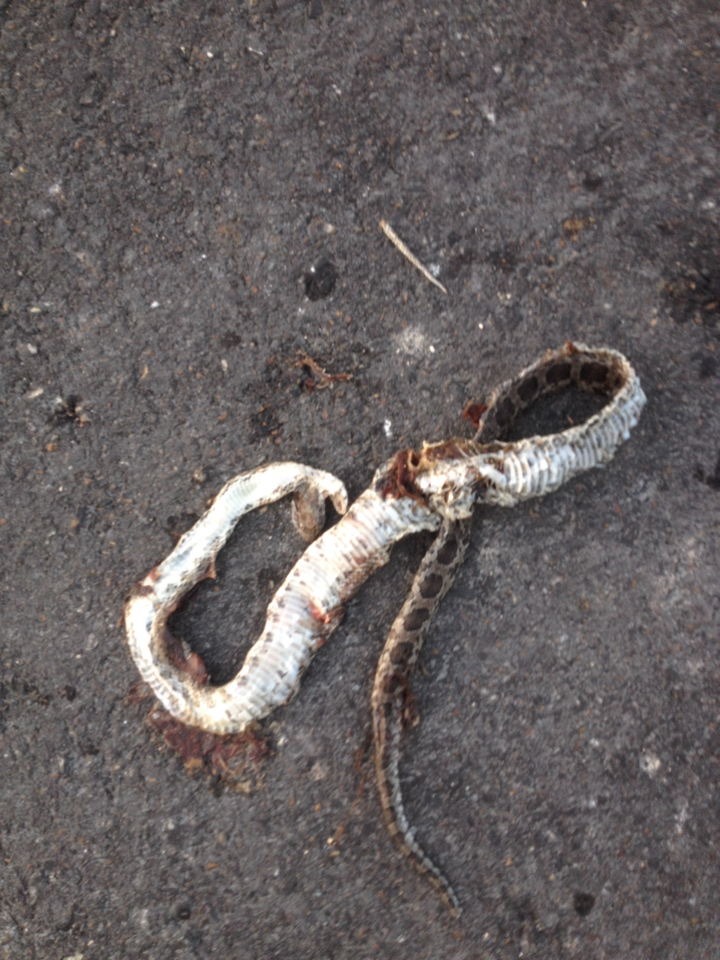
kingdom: Animalia
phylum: Chordata
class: Squamata
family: Colubridae
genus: Pantherophis
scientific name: Pantherophis emoryi
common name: Great plains rat snake
